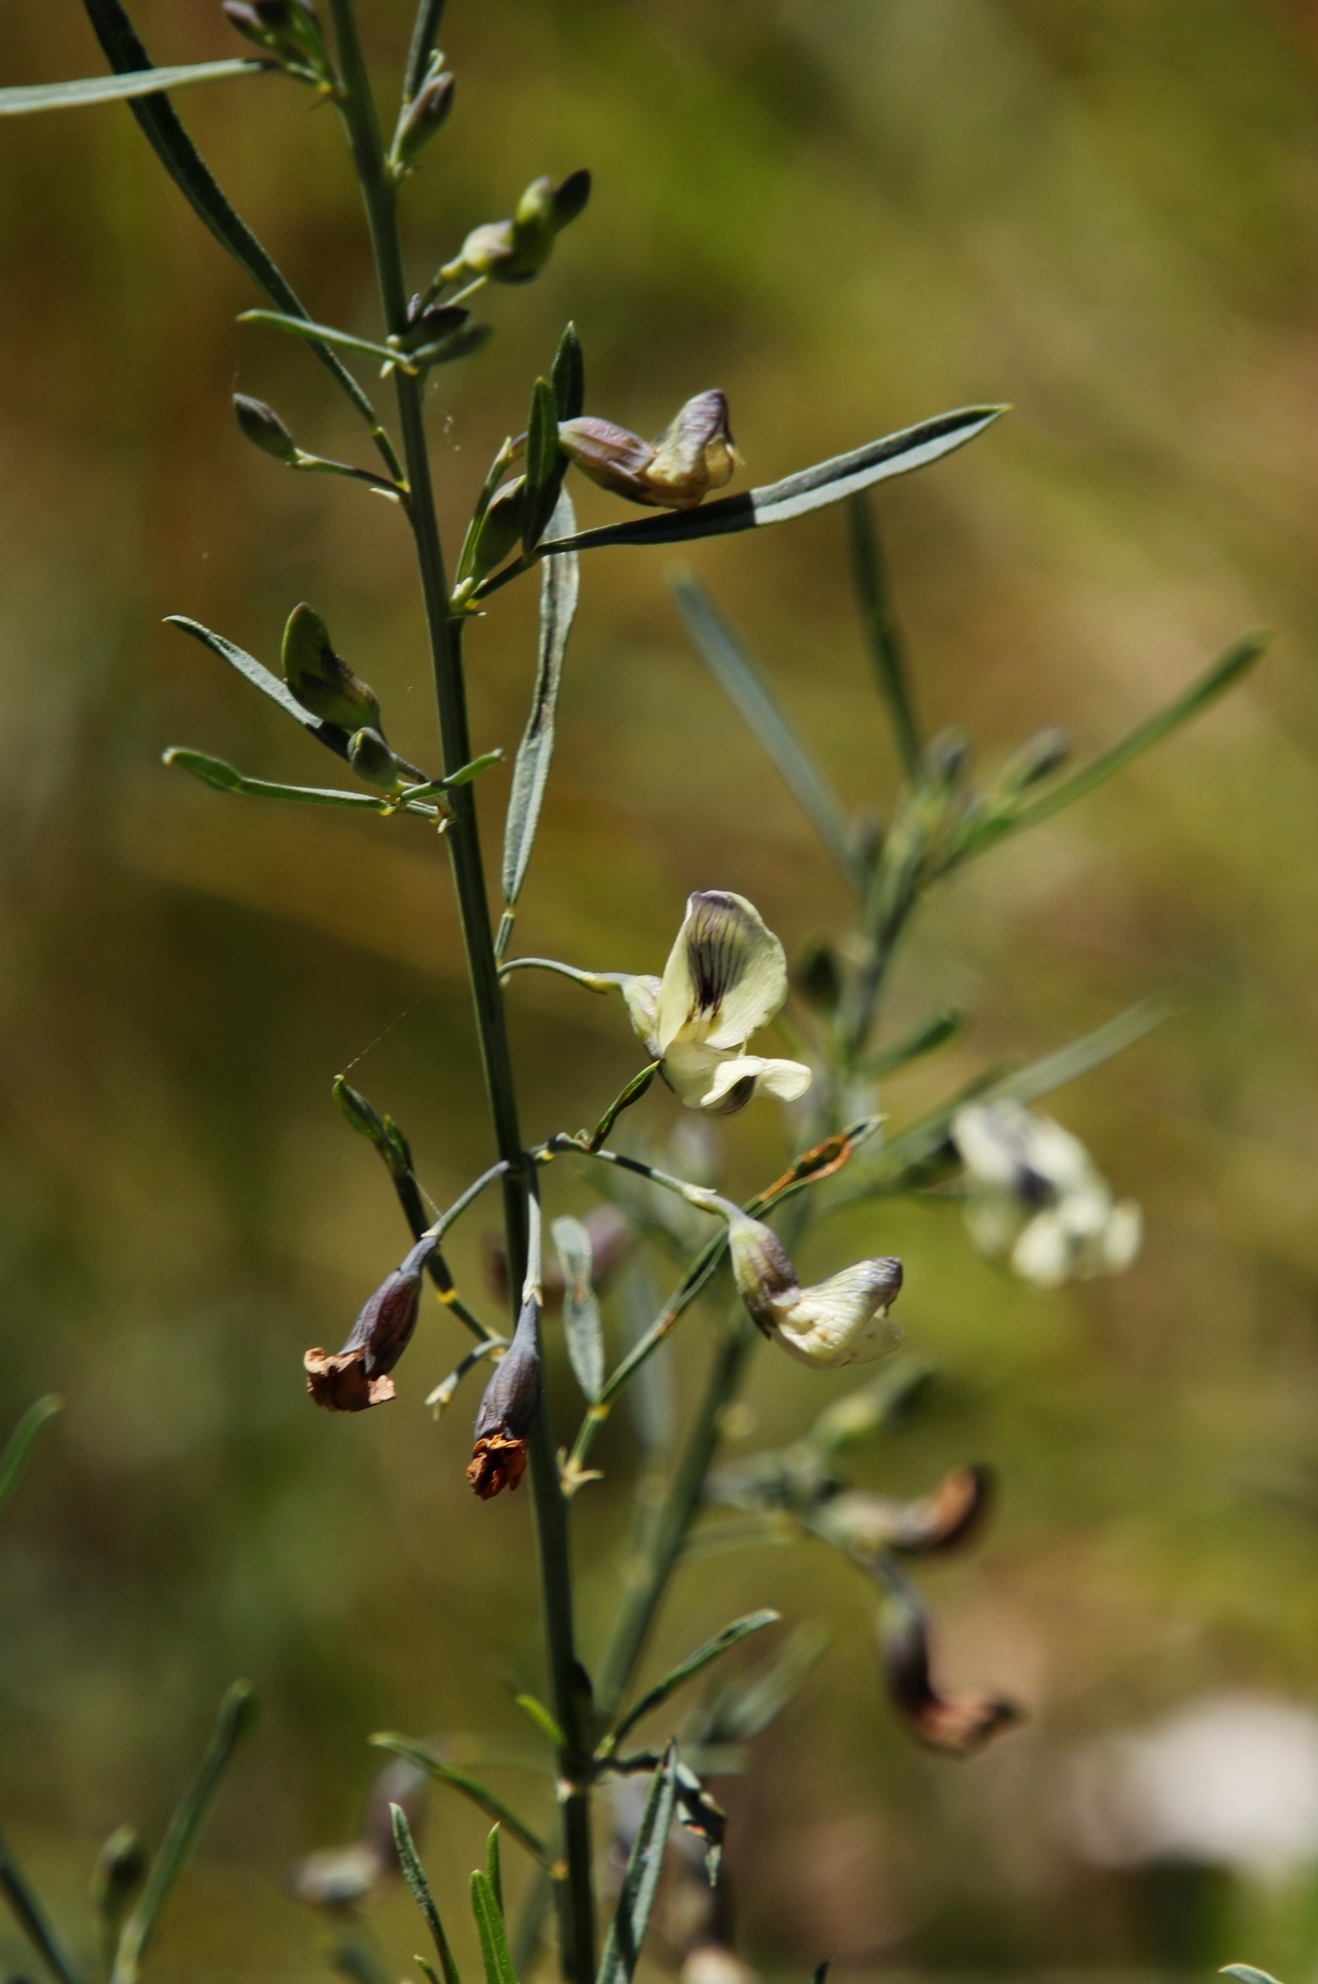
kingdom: Plantae
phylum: Tracheophyta
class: Magnoliopsida
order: Fabales
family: Fabaceae
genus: Psoralea
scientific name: Psoralea oligophylla
